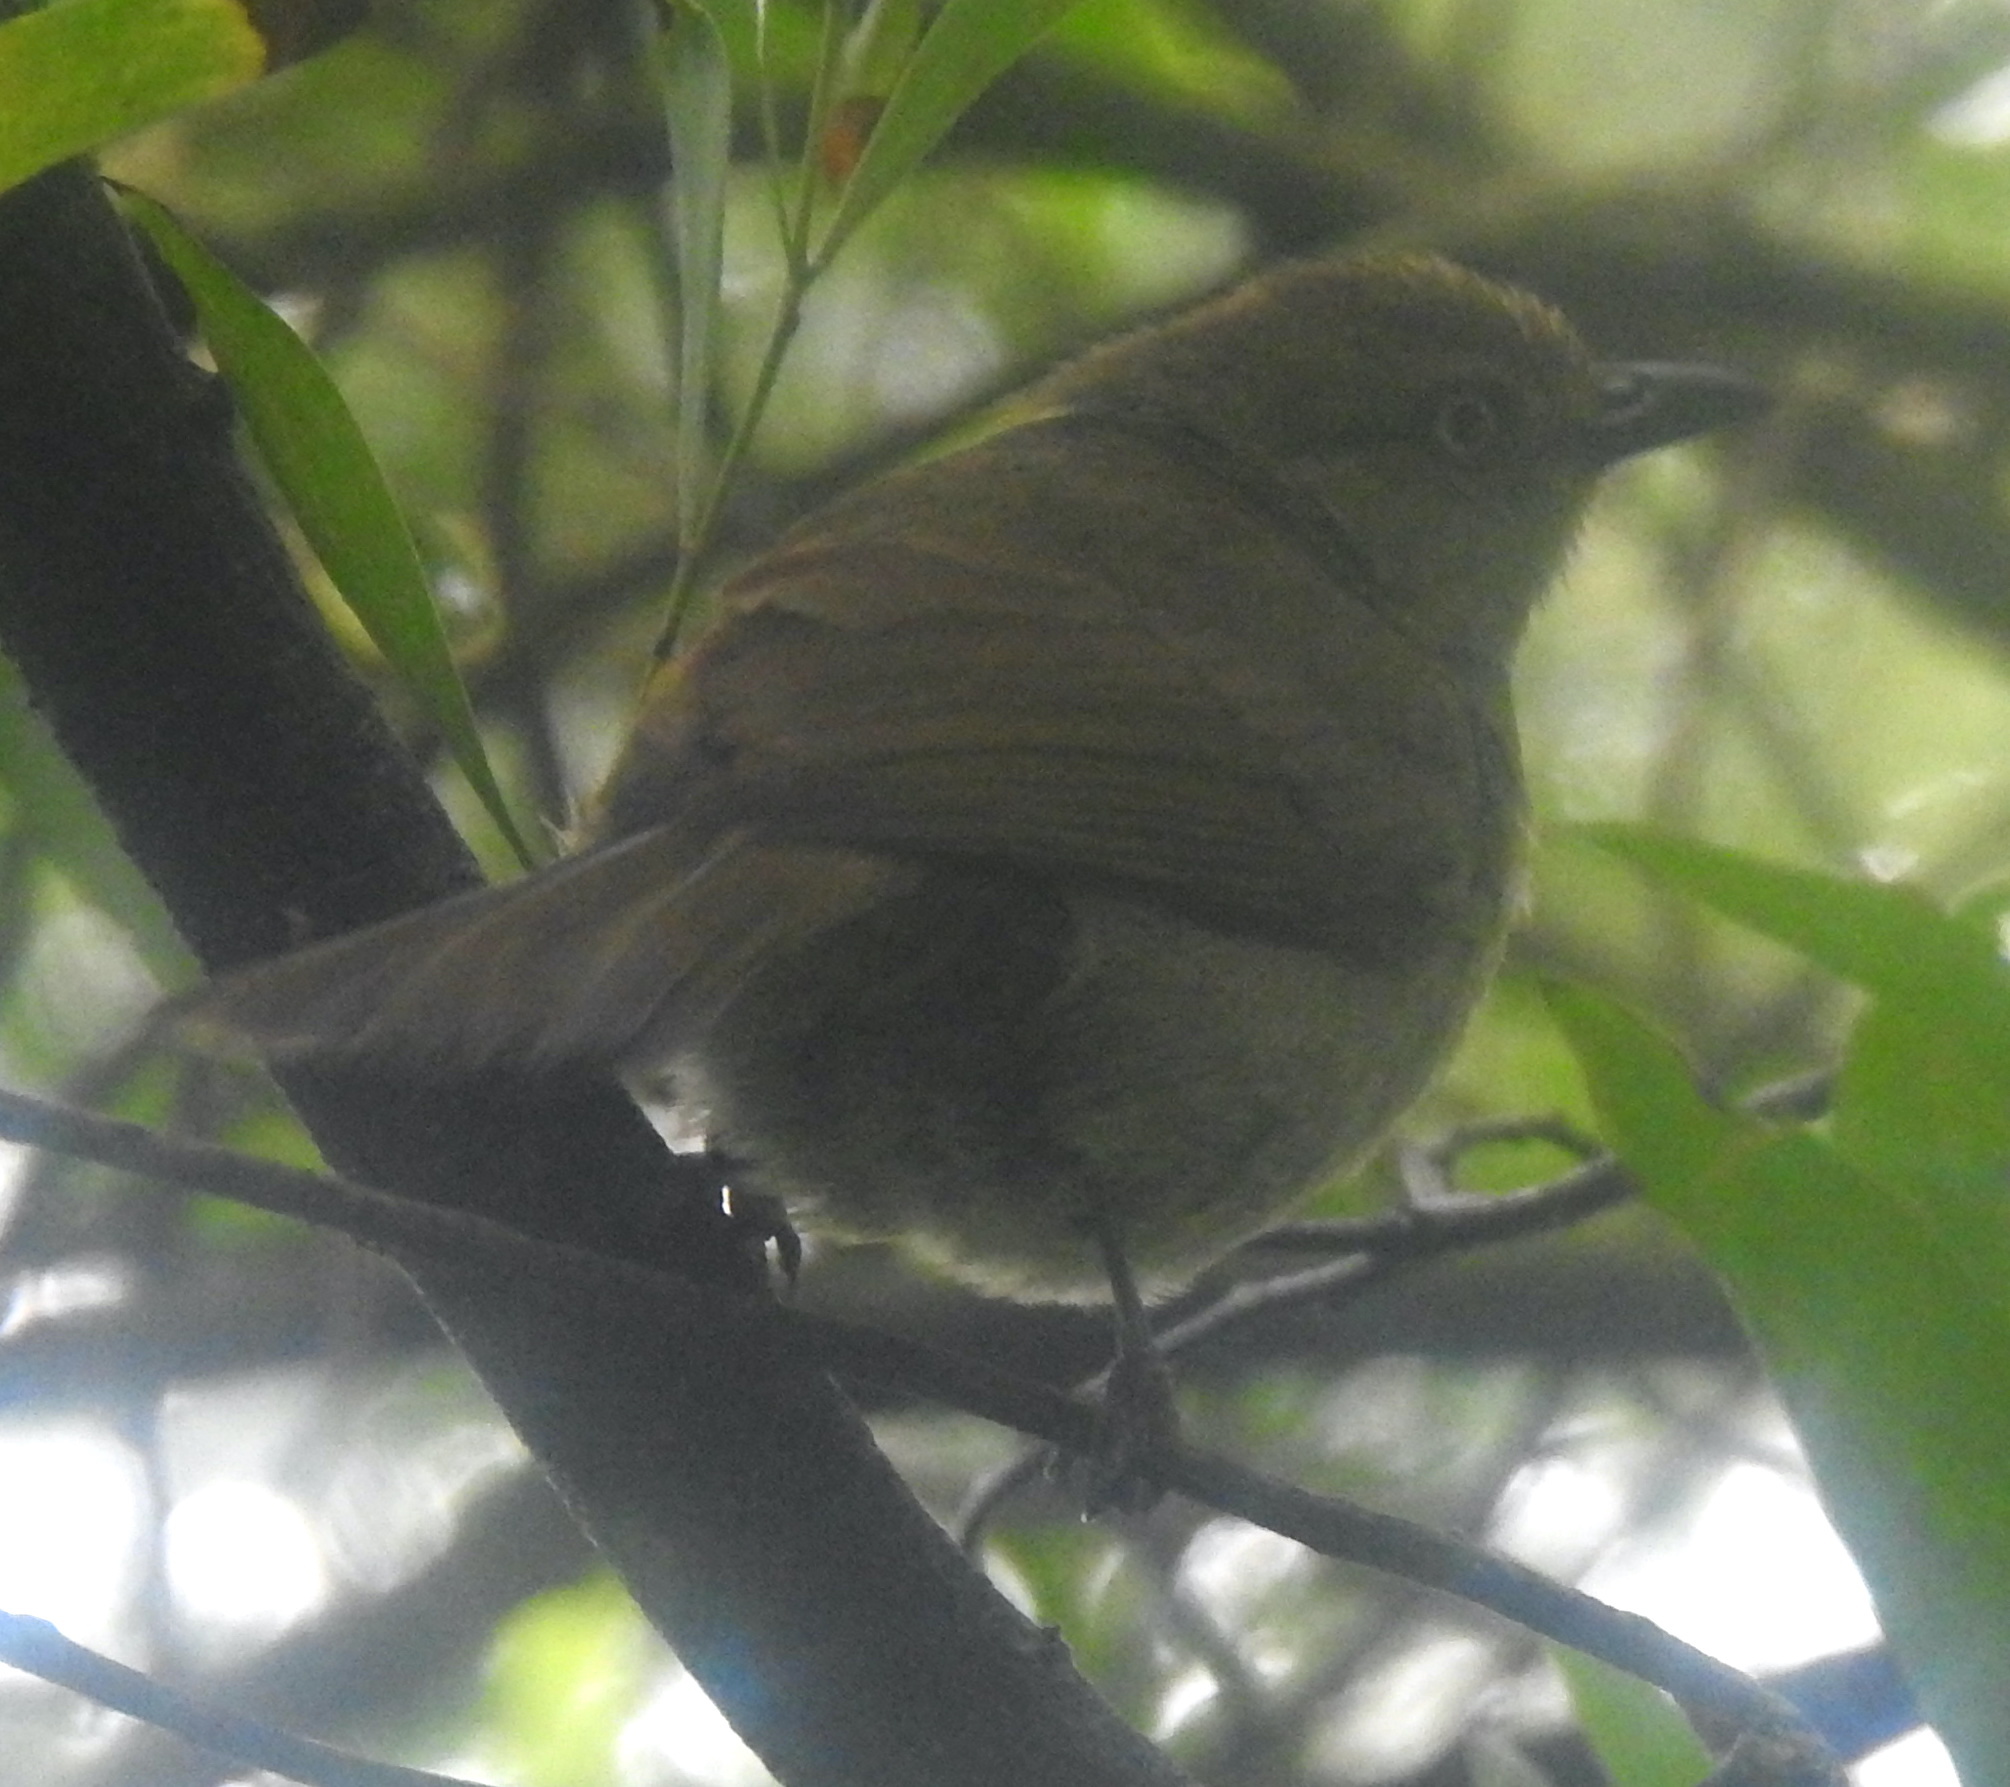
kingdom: Animalia
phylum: Chordata
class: Aves
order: Passeriformes
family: Pycnonotidae
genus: Andropadus
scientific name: Andropadus importunus
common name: Sombre greenbul
